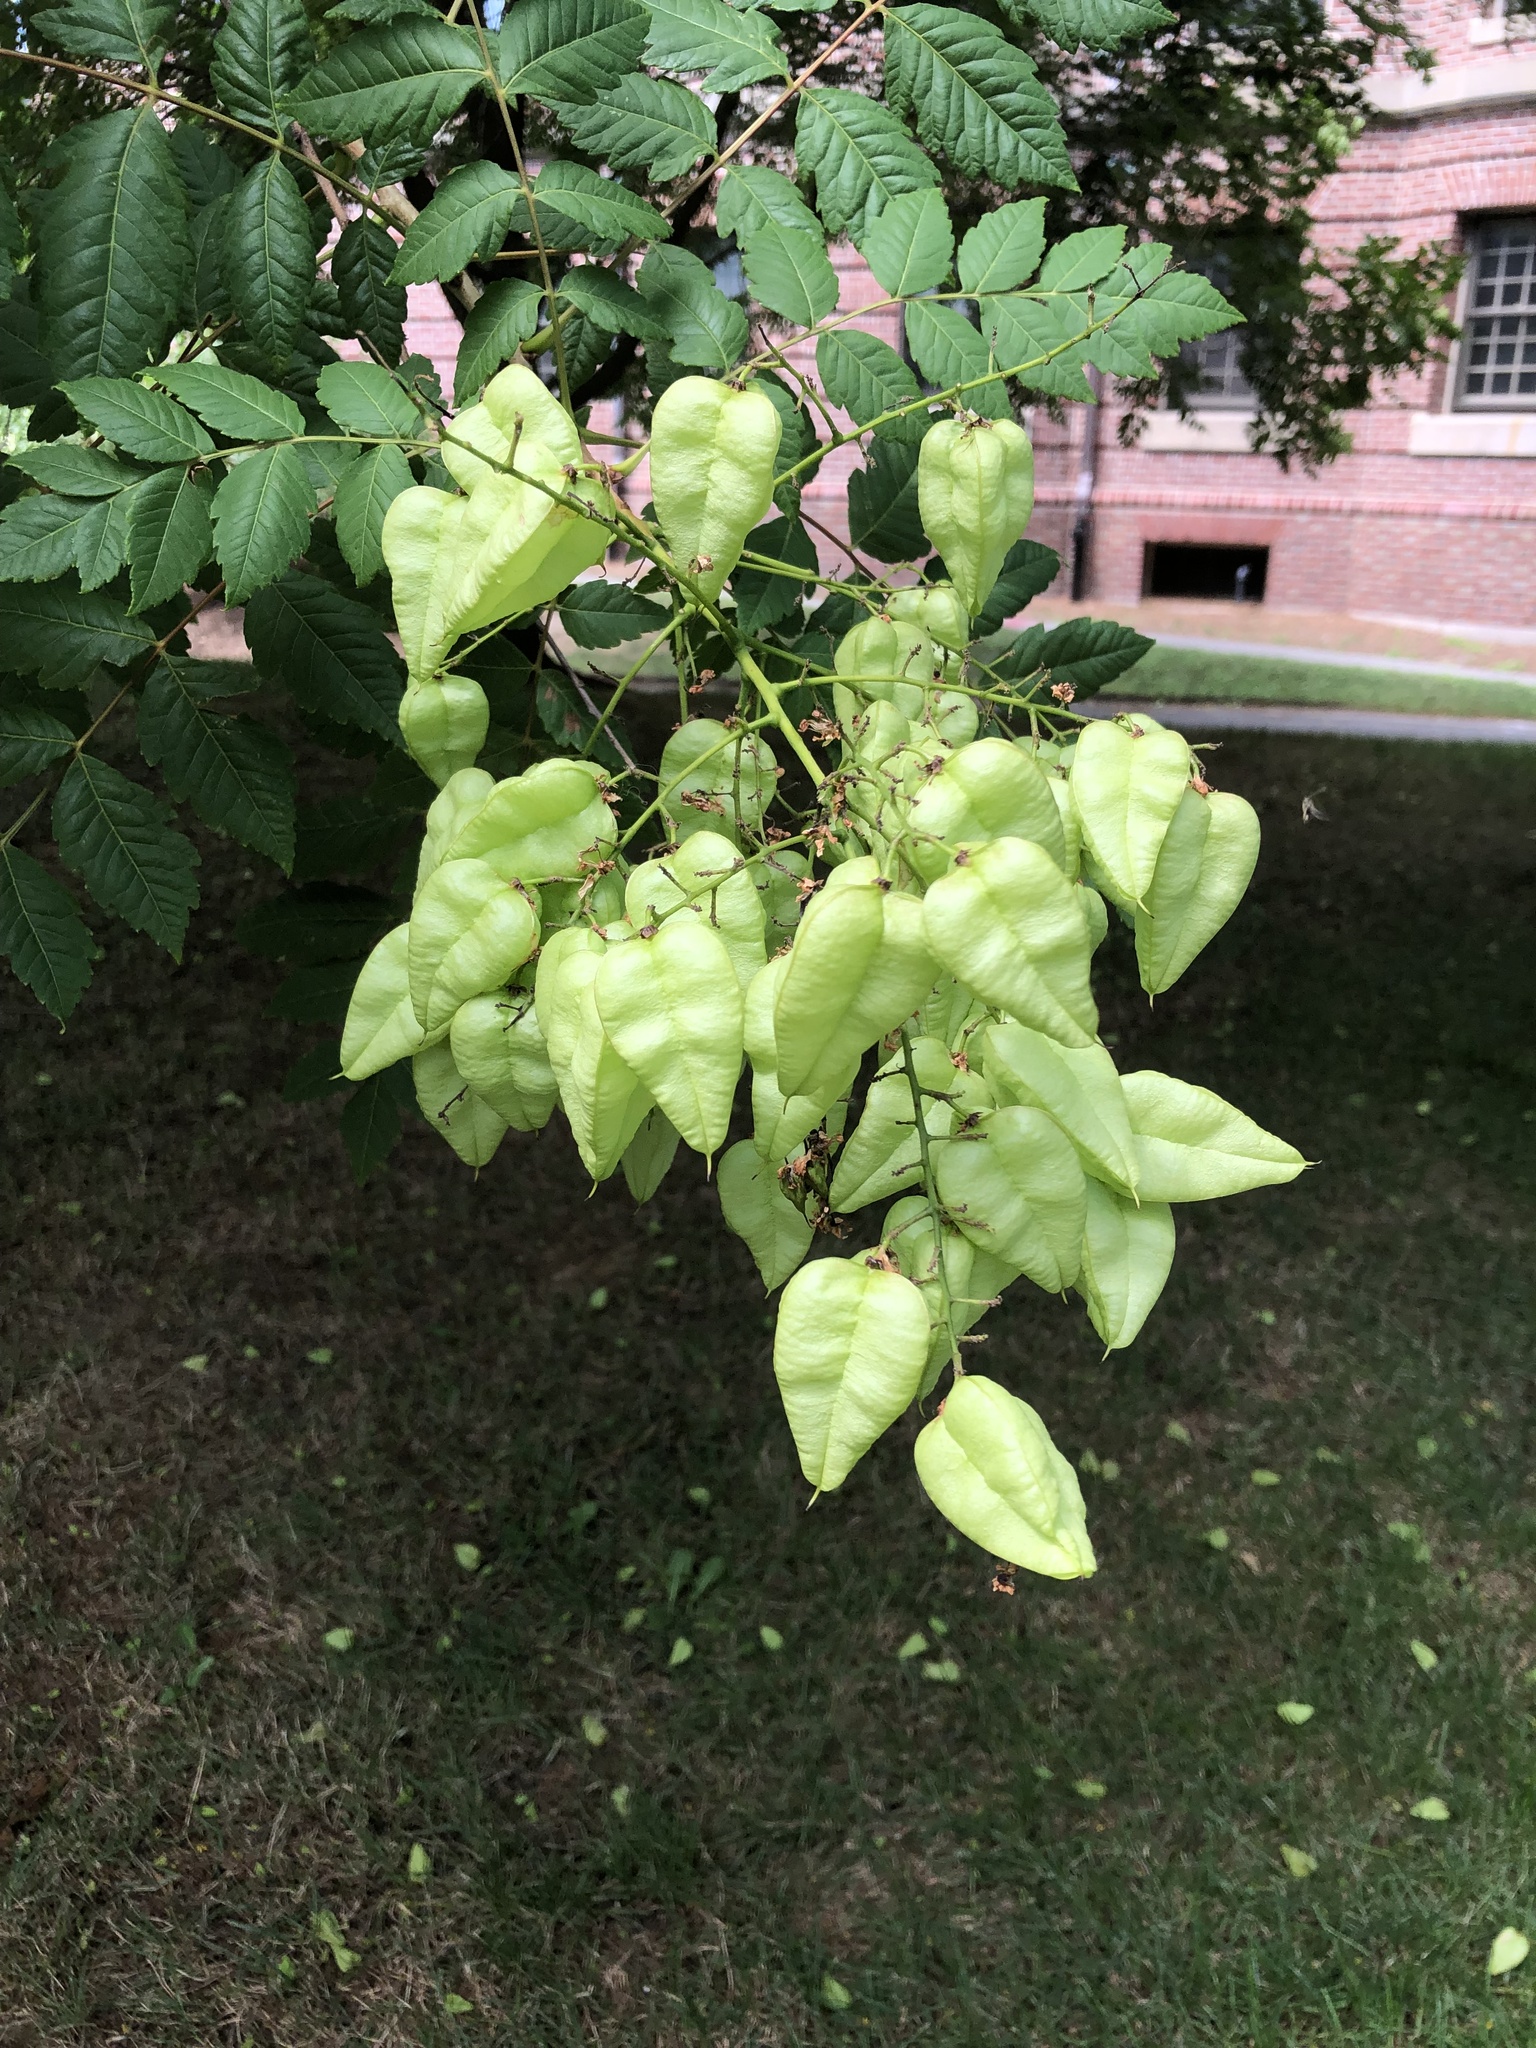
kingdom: Plantae
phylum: Tracheophyta
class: Magnoliopsida
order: Sapindales
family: Sapindaceae
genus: Koelreuteria
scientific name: Koelreuteria paniculata
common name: Pride-of-india
